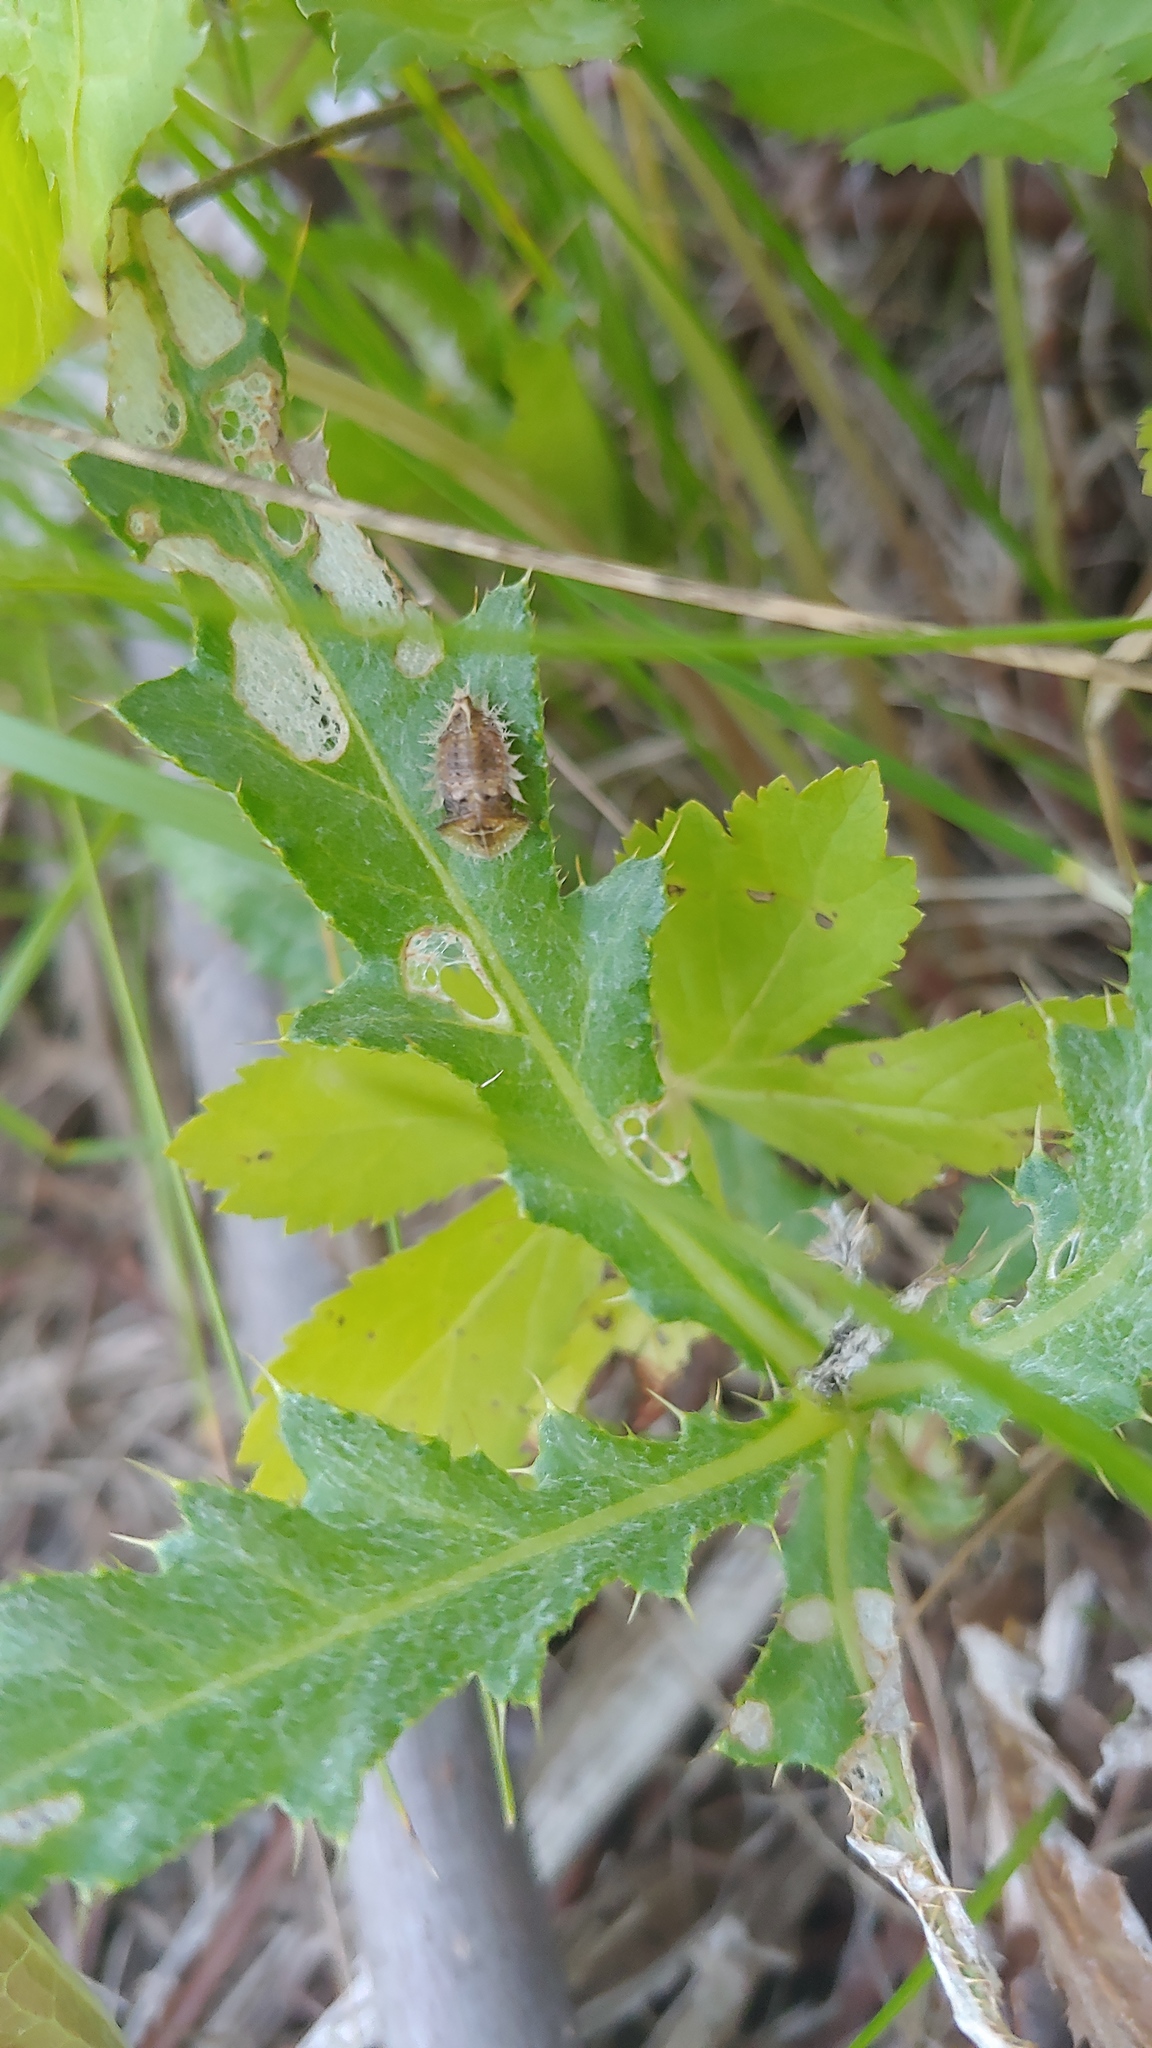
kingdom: Animalia
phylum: Arthropoda
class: Insecta
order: Coleoptera
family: Chrysomelidae
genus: Cassida
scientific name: Cassida rubiginosa
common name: Thistle tortoise beetle
